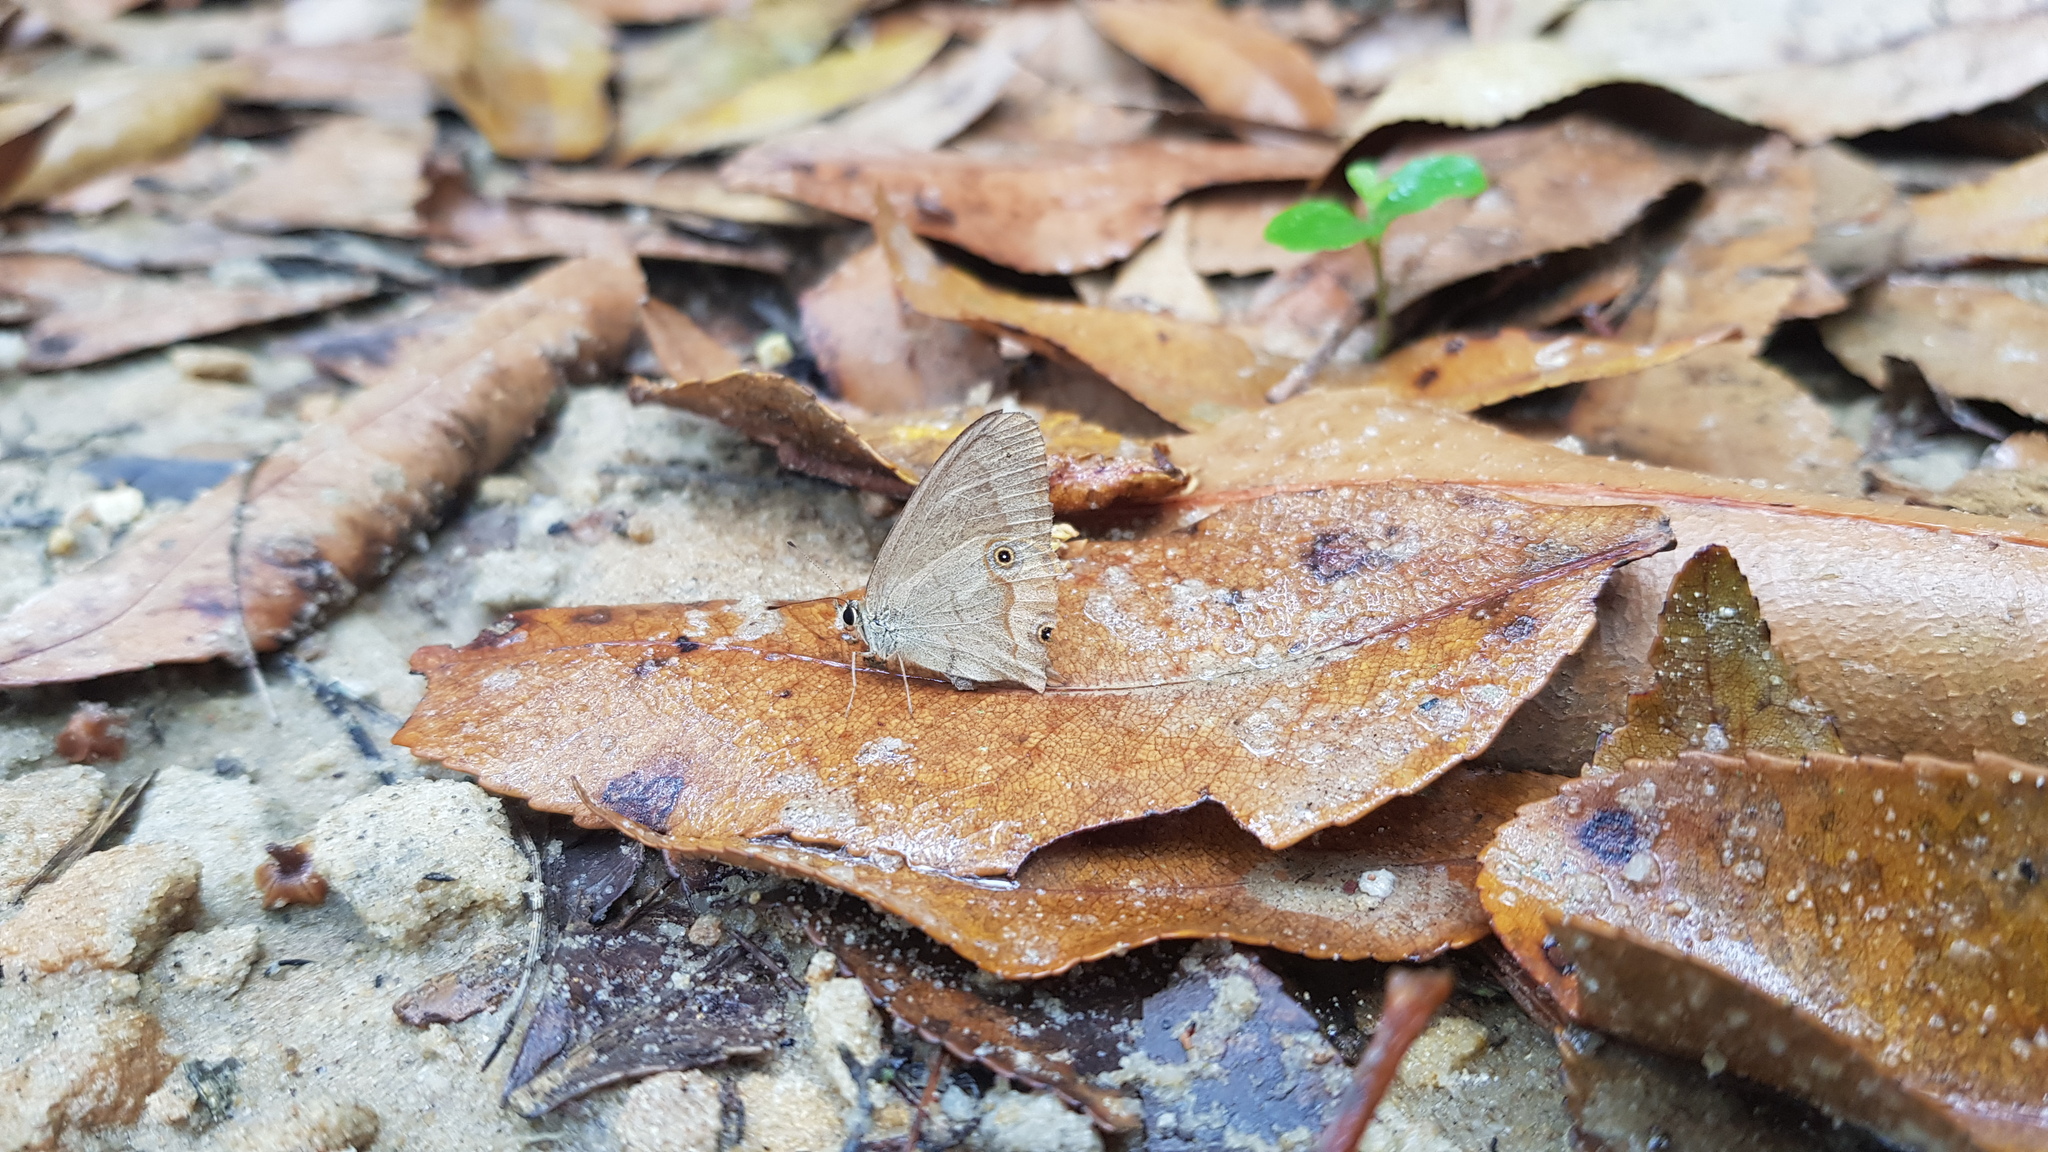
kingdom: Animalia
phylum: Arthropoda
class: Insecta
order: Lepidoptera
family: Nymphalidae
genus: Hypocysta
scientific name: Hypocysta metirius
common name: Brown ringlet
